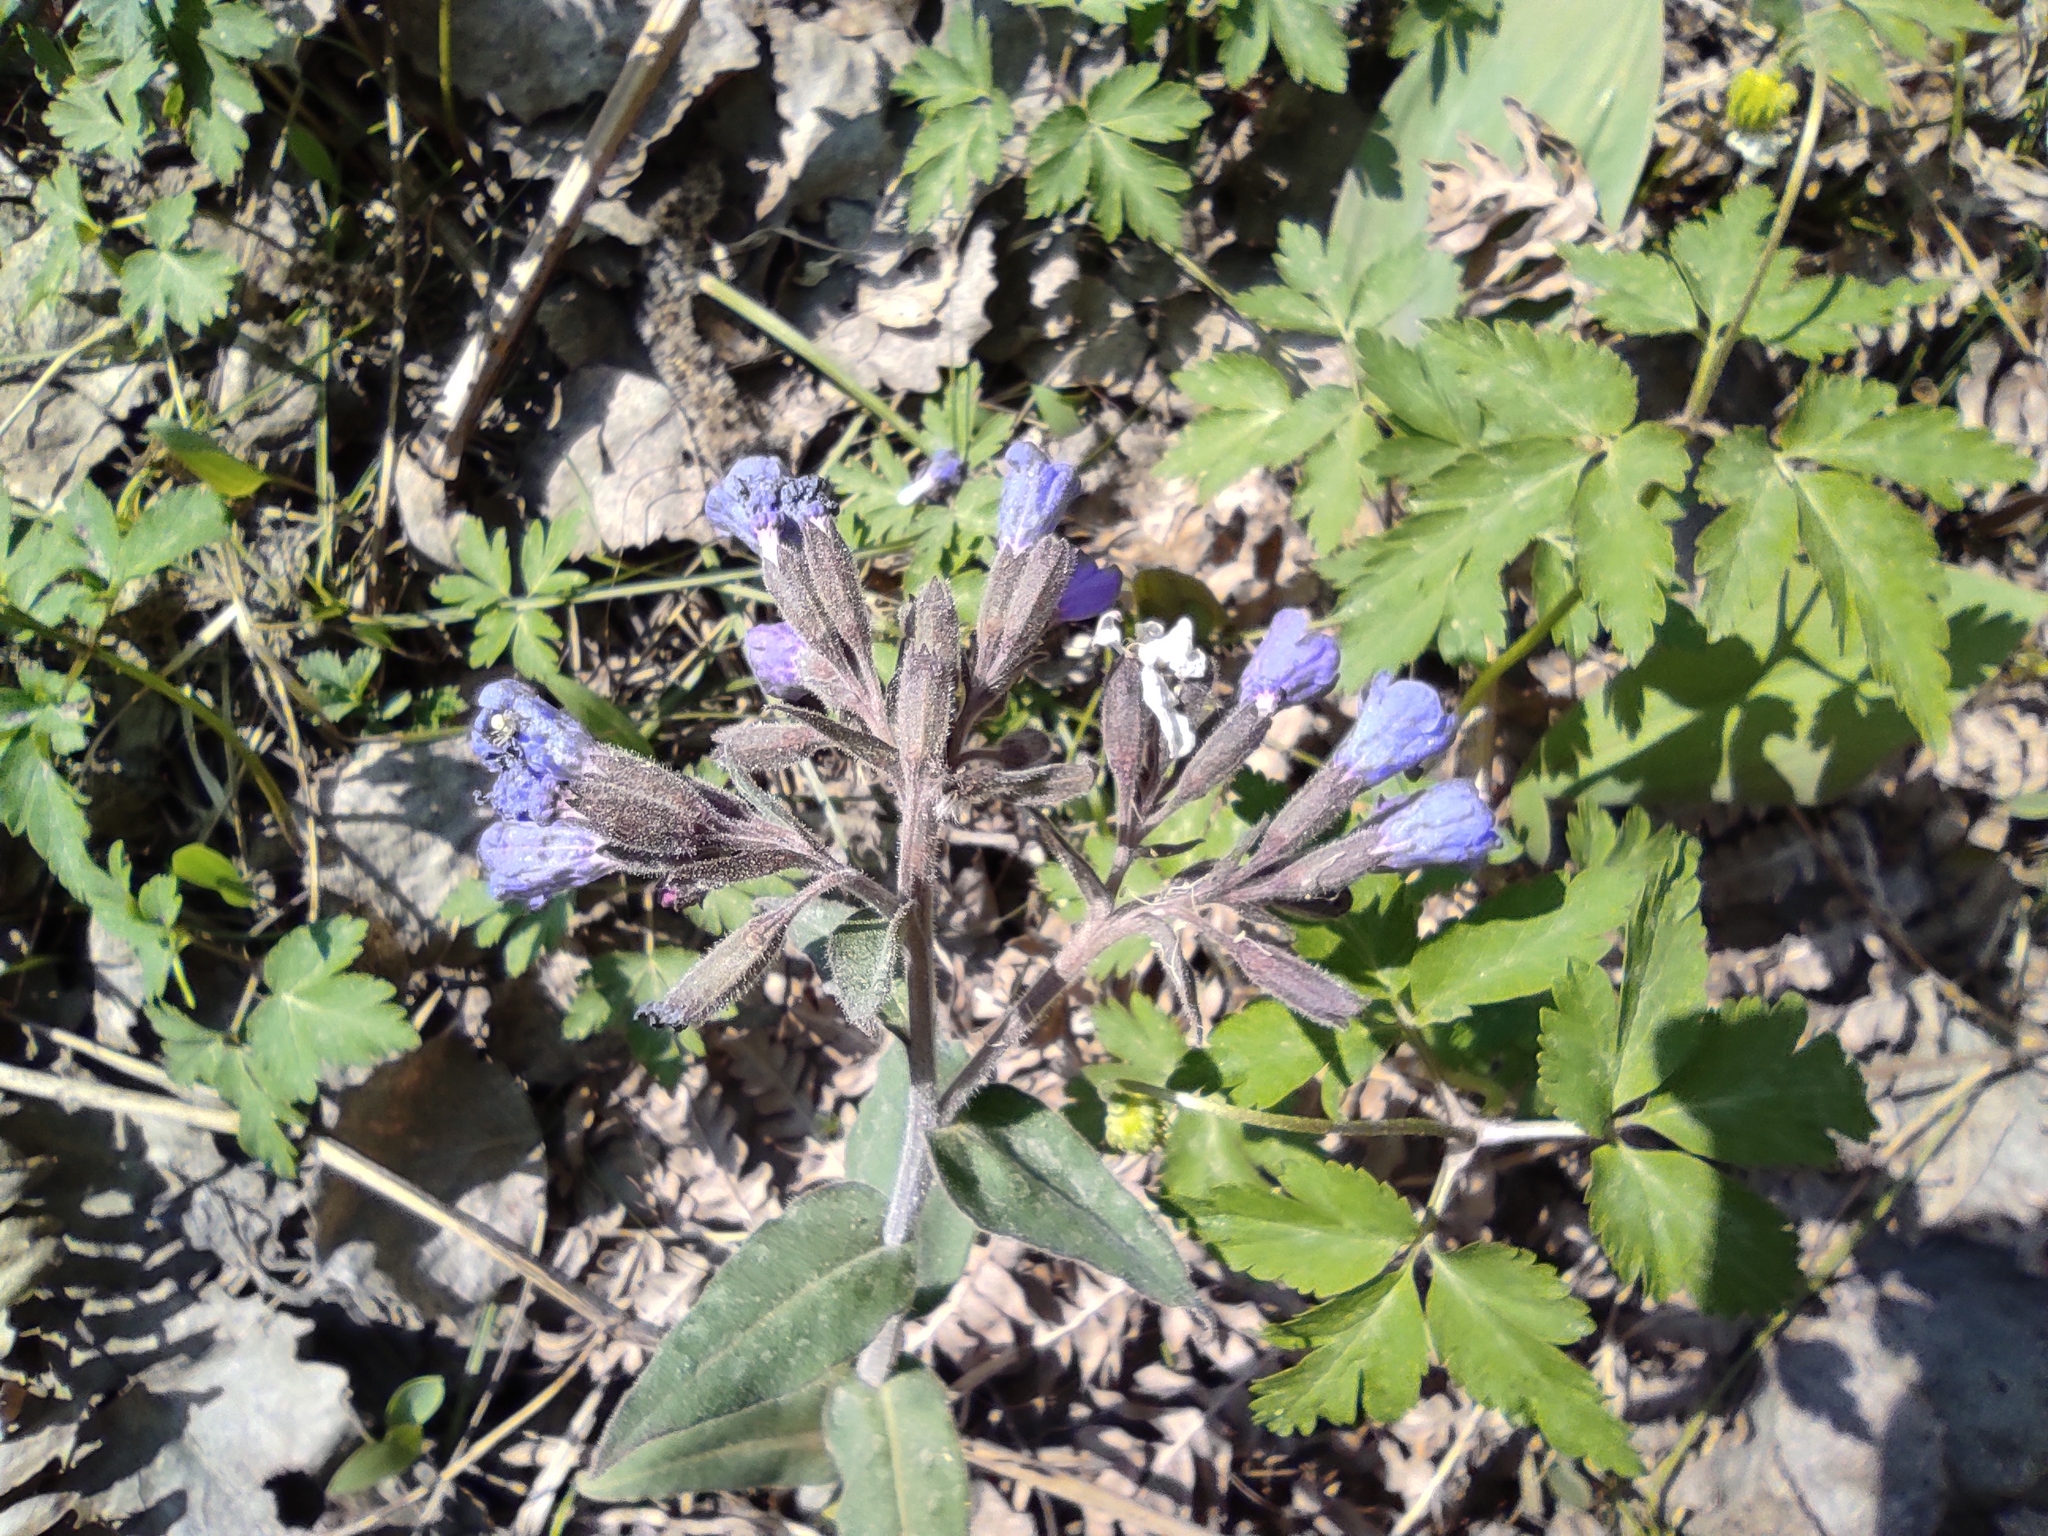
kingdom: Plantae
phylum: Tracheophyta
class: Magnoliopsida
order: Boraginales
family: Boraginaceae
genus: Pulmonaria
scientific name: Pulmonaria mollis
